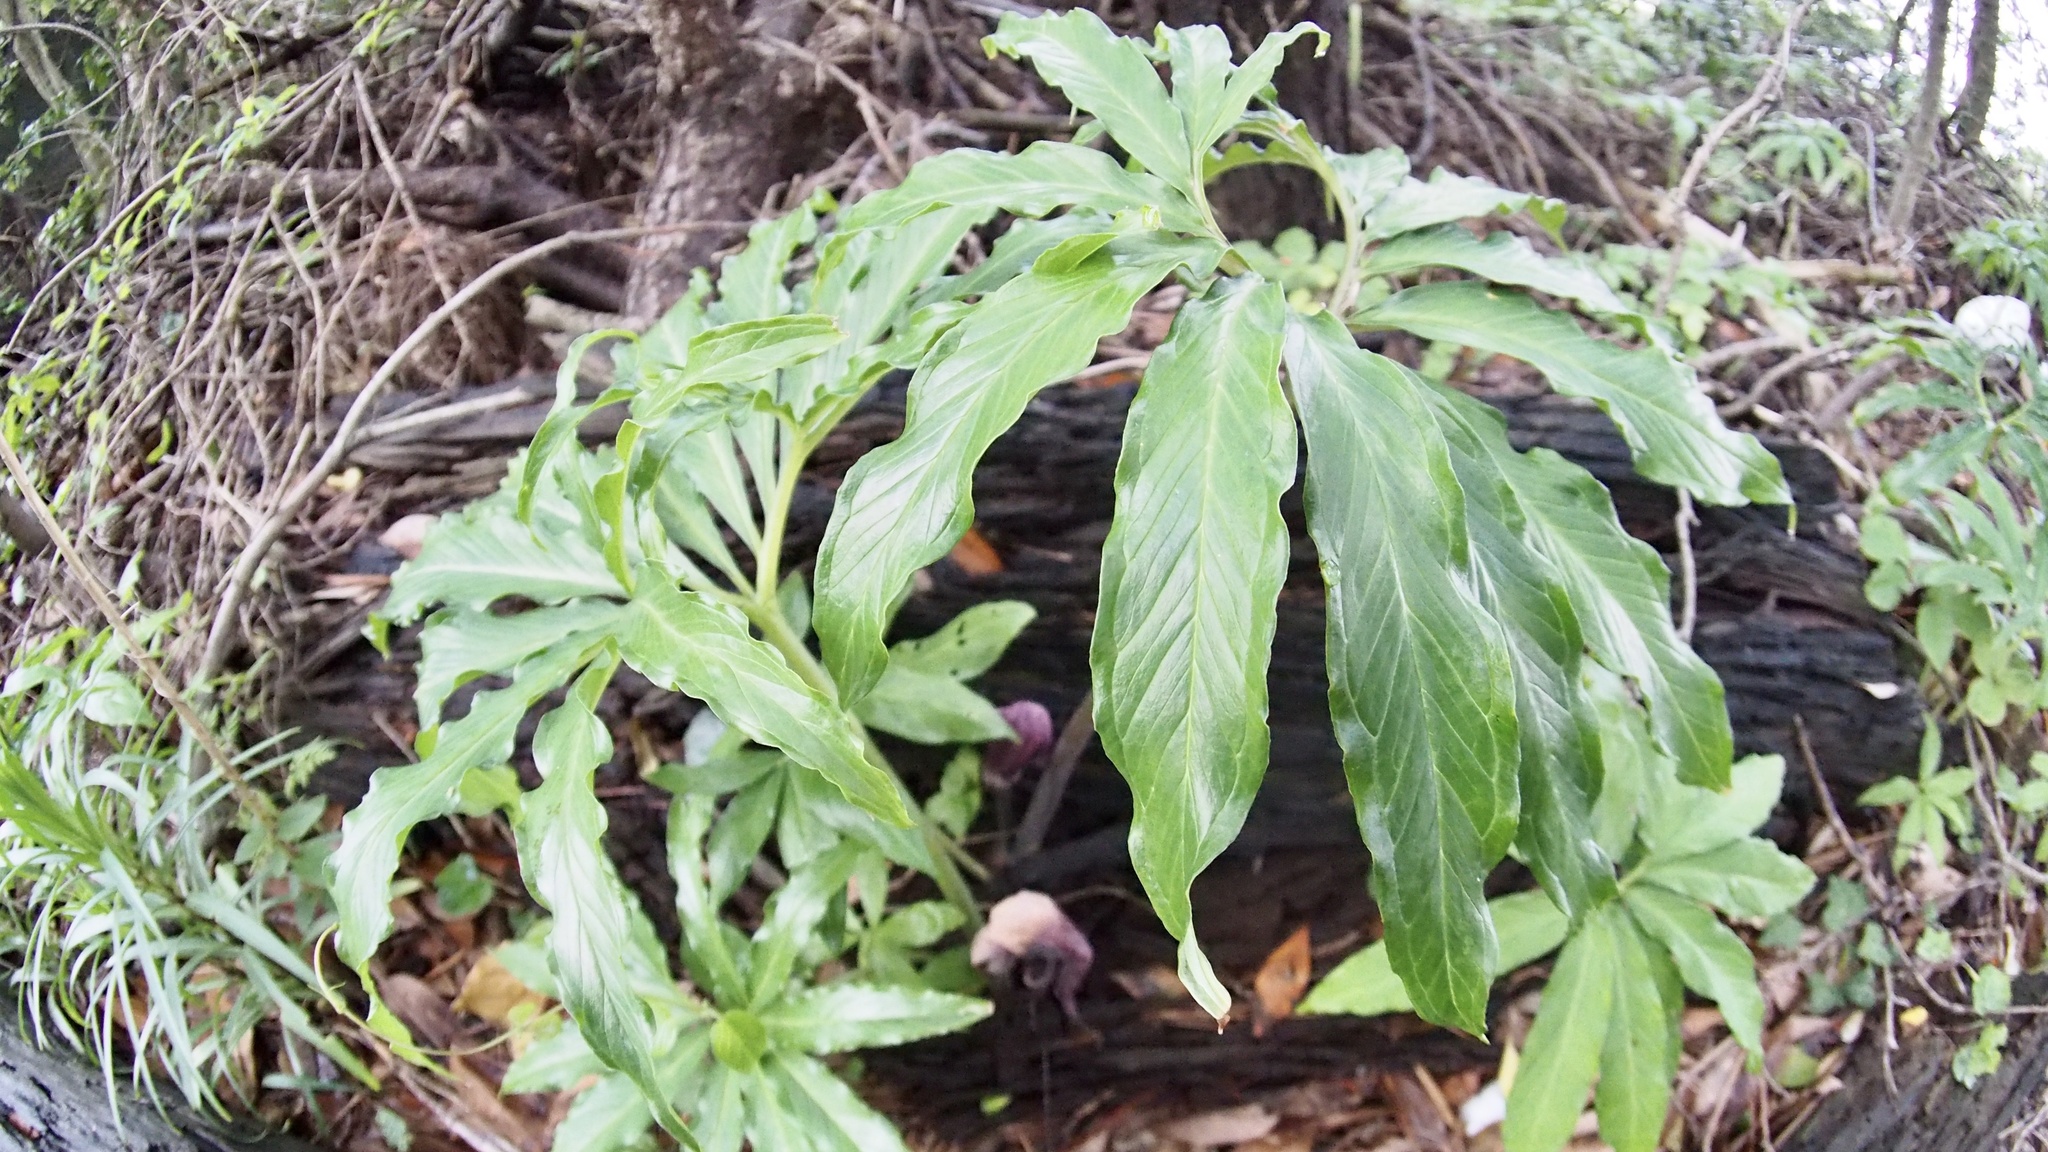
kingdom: Plantae
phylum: Tracheophyta
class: Liliopsida
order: Alismatales
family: Araceae
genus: Arisaema
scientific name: Arisaema thunbergii
